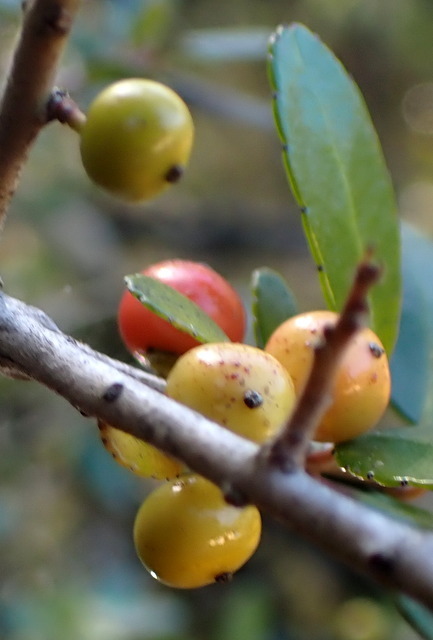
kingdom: Plantae
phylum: Tracheophyta
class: Magnoliopsida
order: Aquifoliales
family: Aquifoliaceae
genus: Ilex
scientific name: Ilex vomitoria
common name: Yaupon holly
